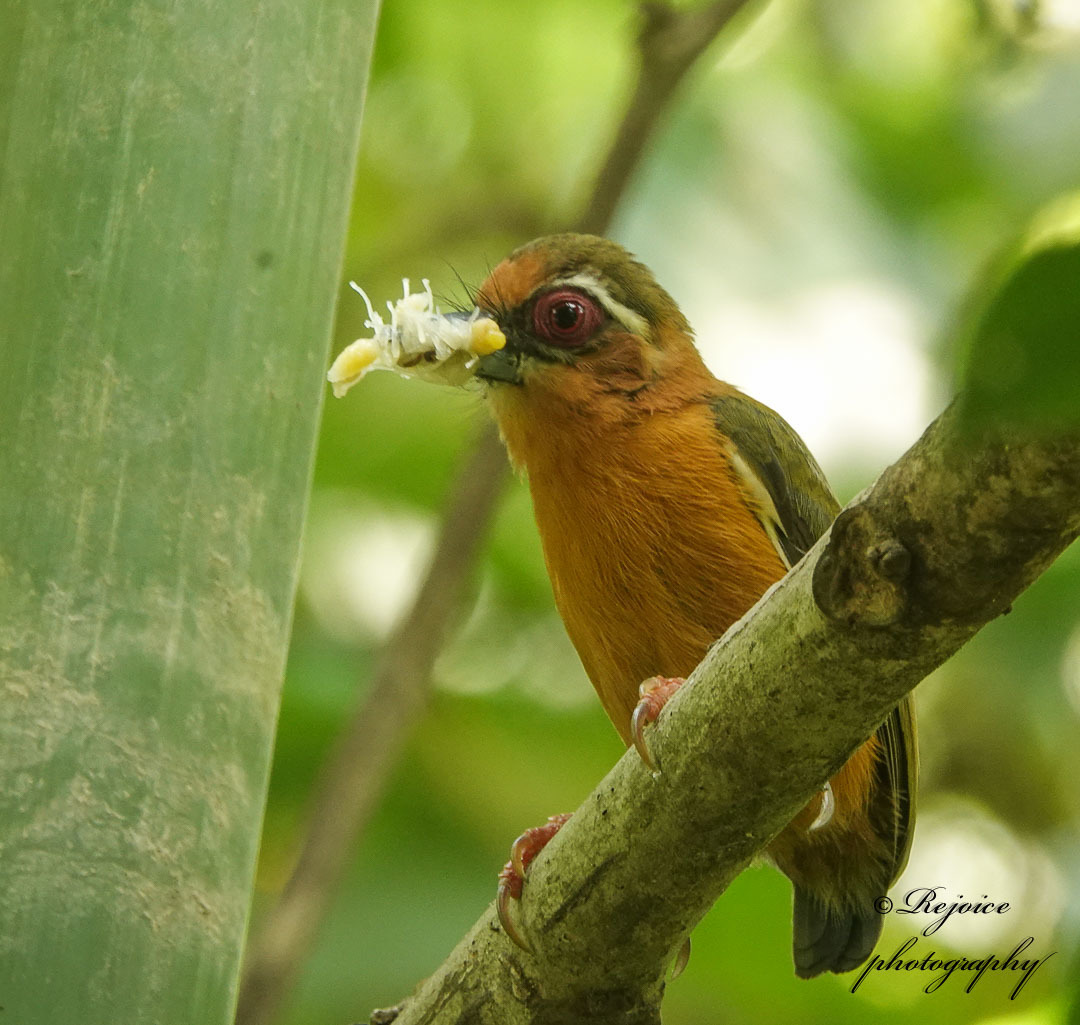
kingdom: Animalia
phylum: Chordata
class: Aves
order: Piciformes
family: Picidae
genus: Sasia
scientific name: Sasia ochracea
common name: White-browed piculet
